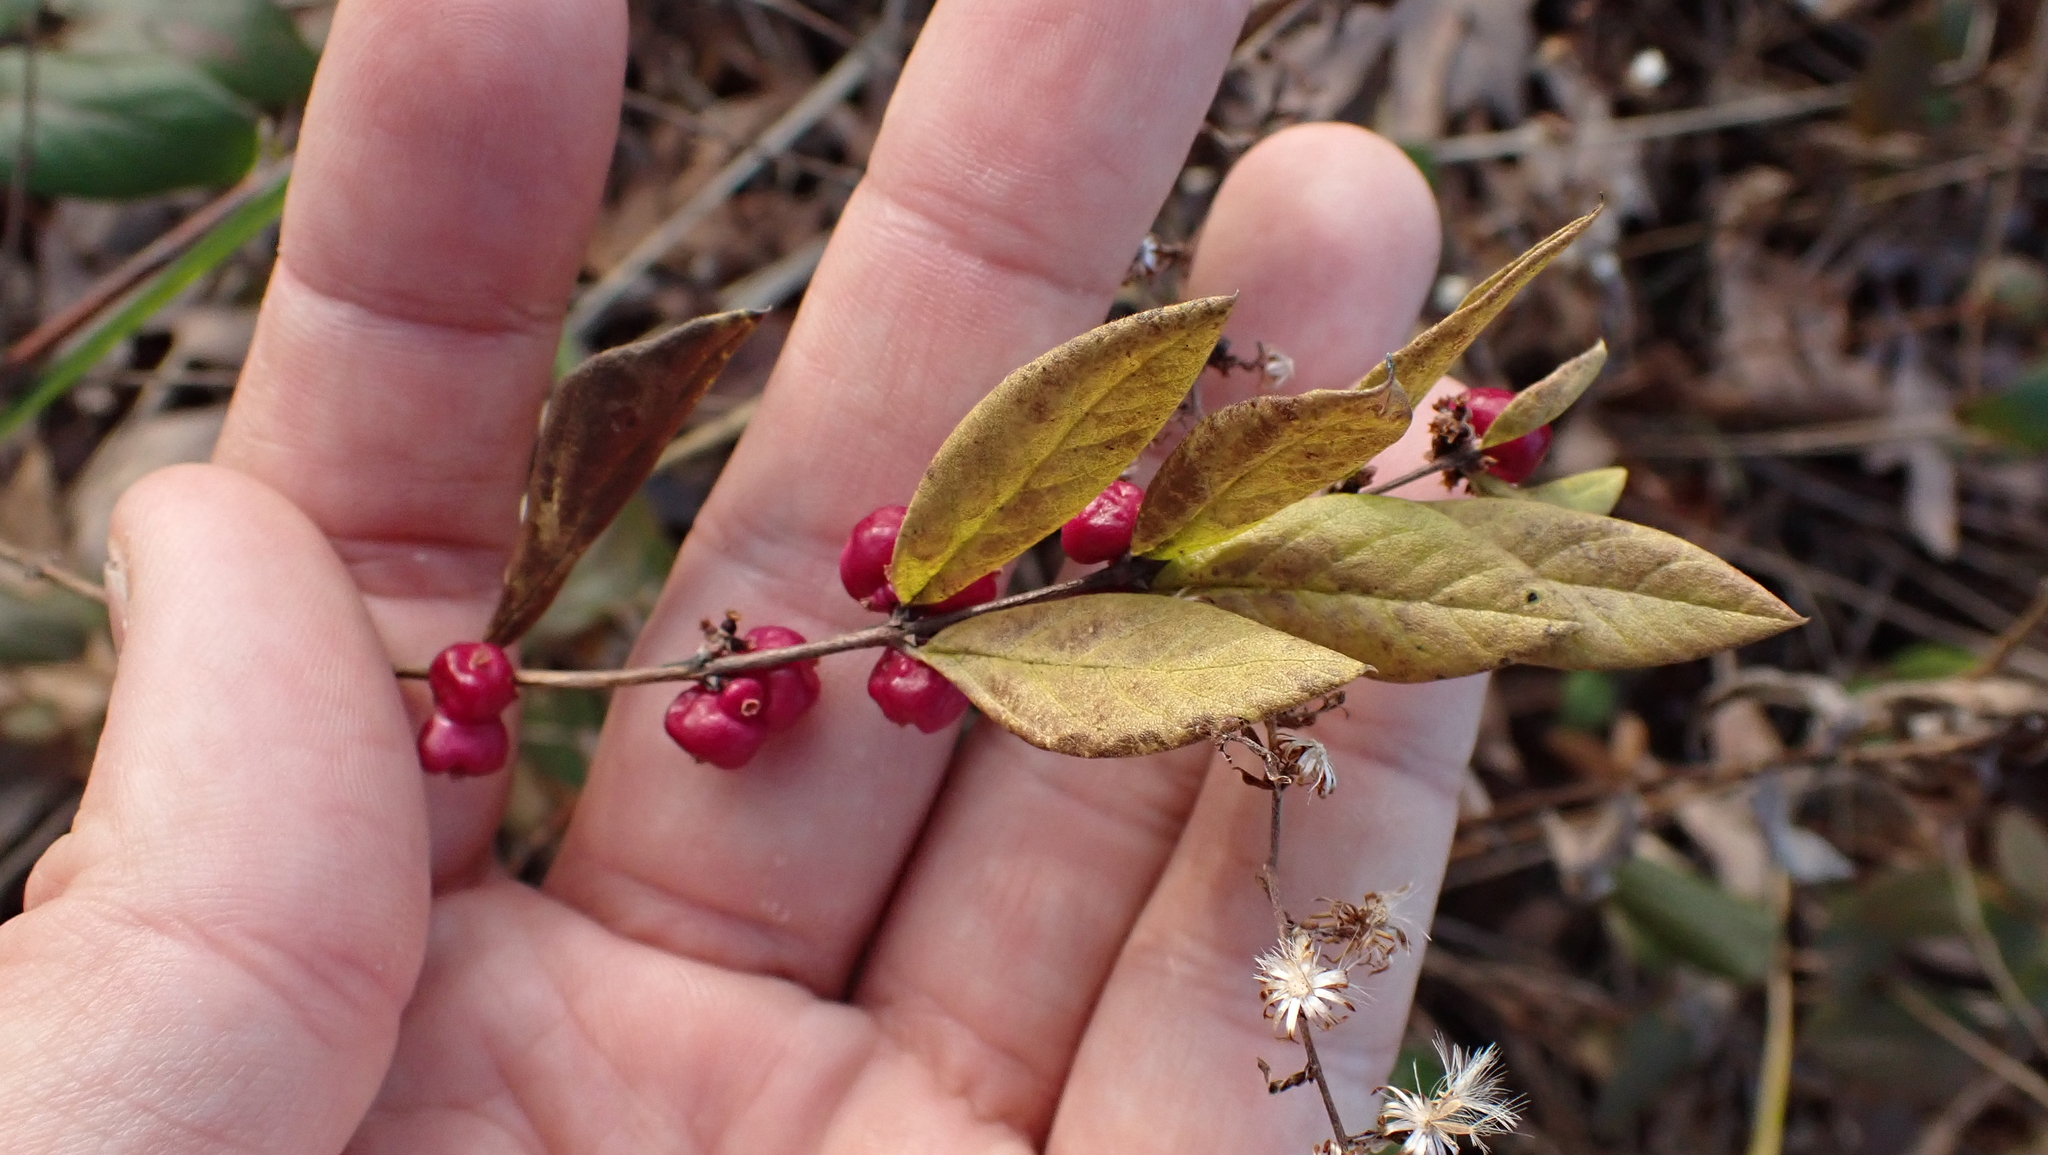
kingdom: Plantae
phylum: Tracheophyta
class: Magnoliopsida
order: Dipsacales
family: Caprifoliaceae
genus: Symphoricarpos
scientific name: Symphoricarpos orbiculatus
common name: Coralberry
